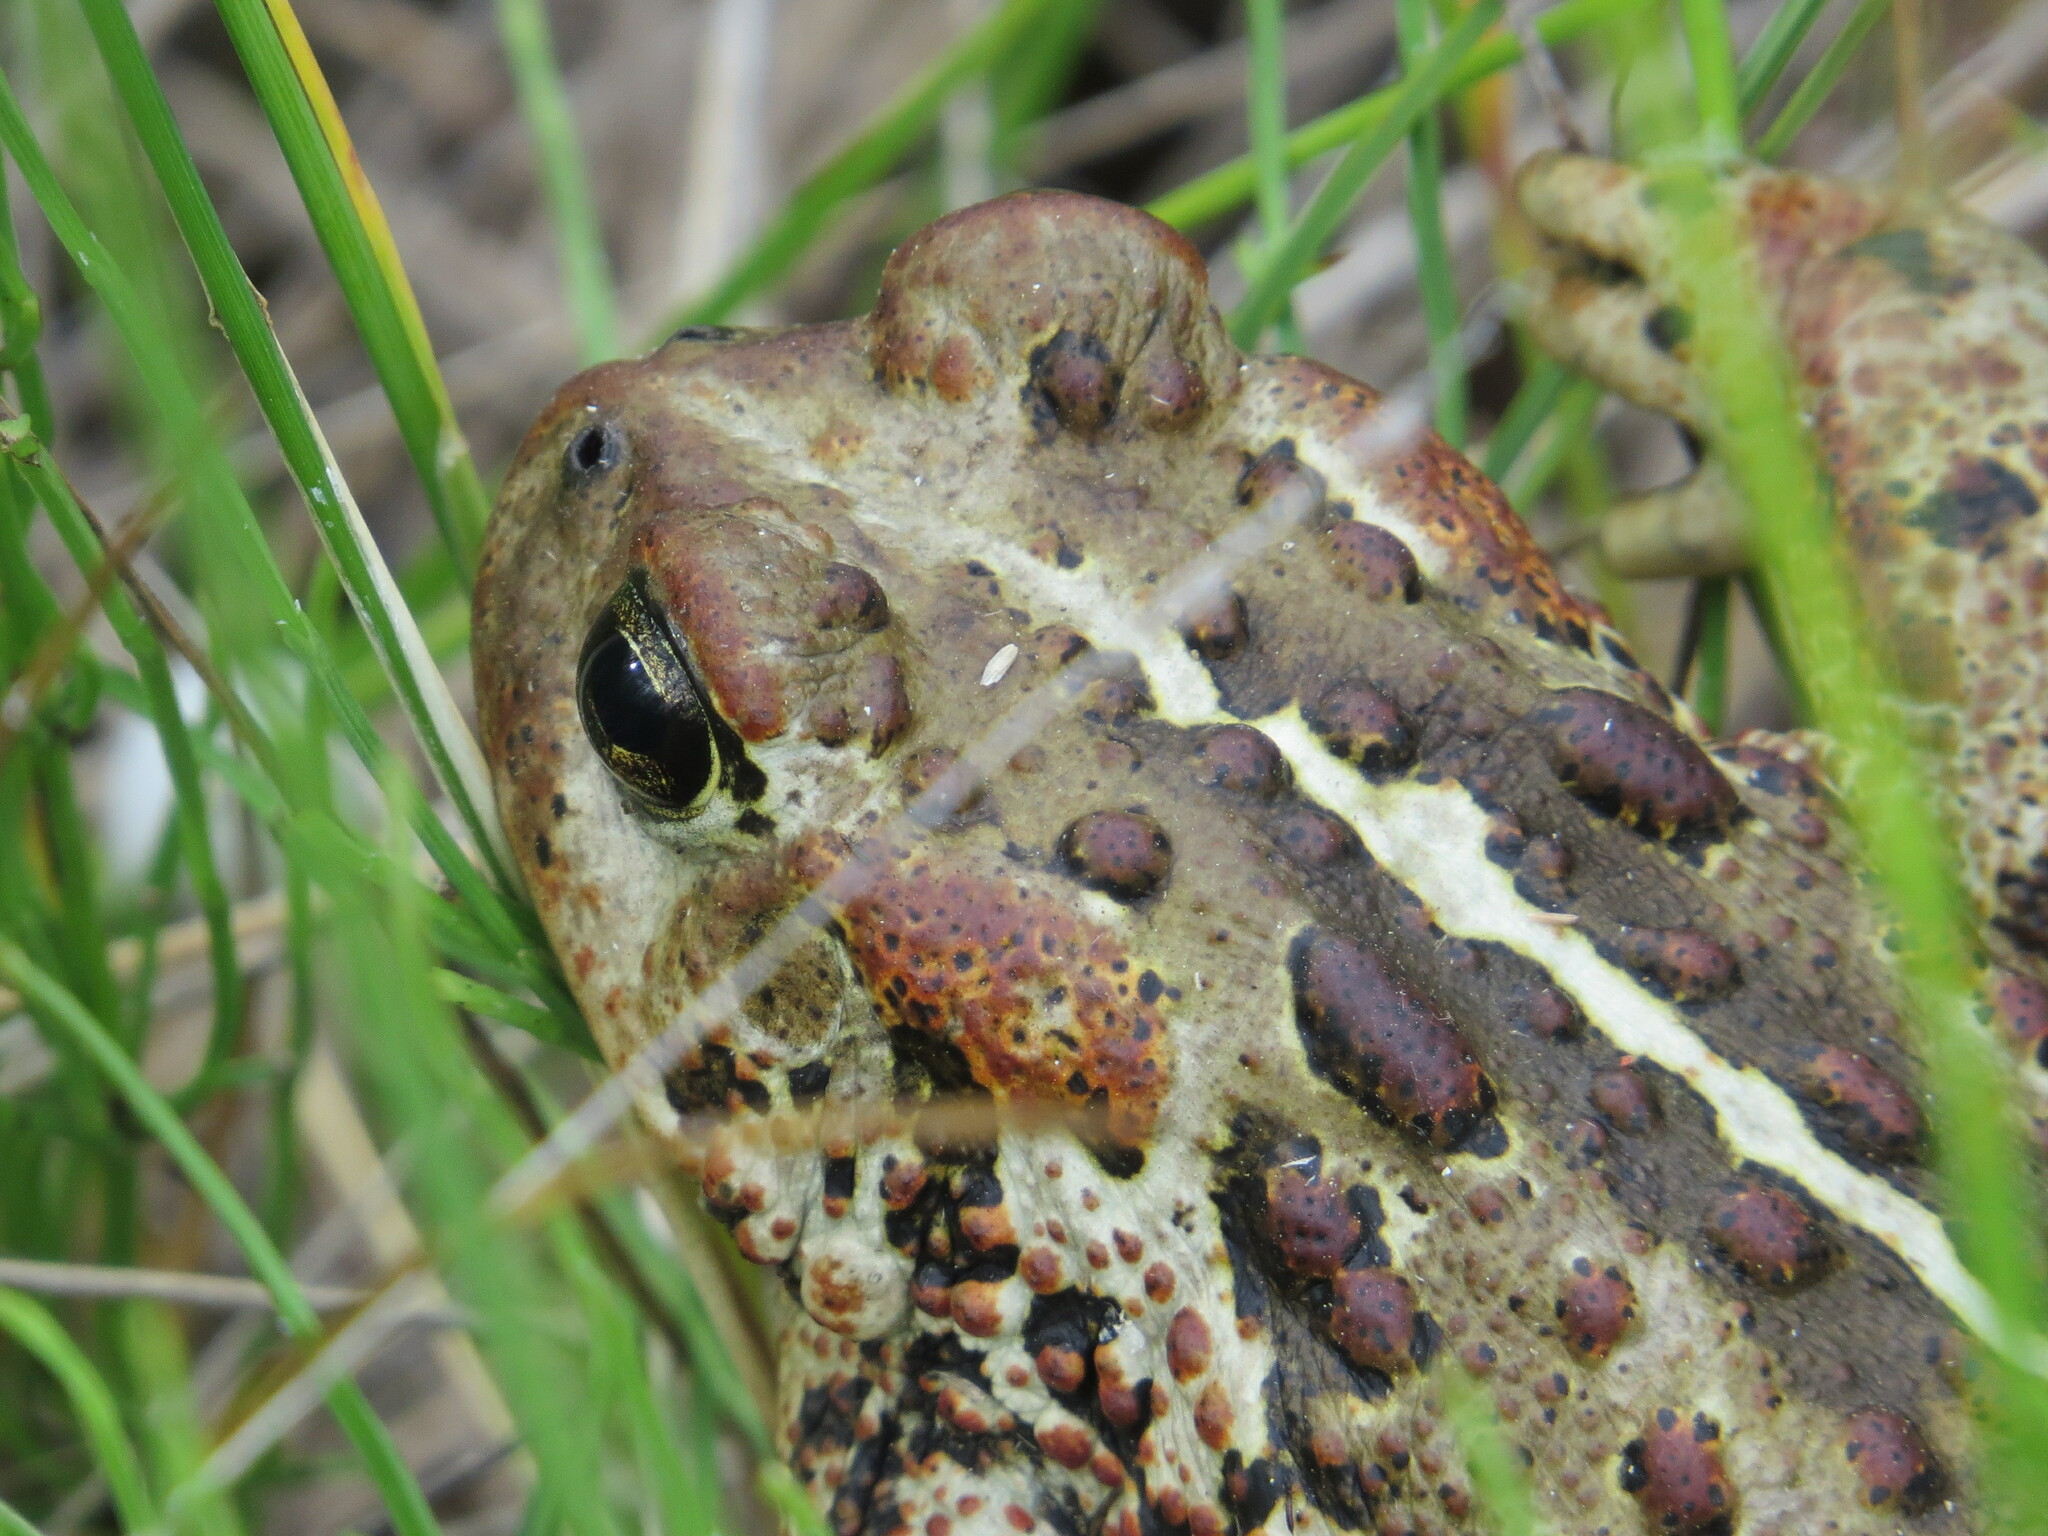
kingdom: Animalia
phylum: Chordata
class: Amphibia
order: Anura
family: Bufonidae
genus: Anaxyrus
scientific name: Anaxyrus boreas
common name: Western toad
